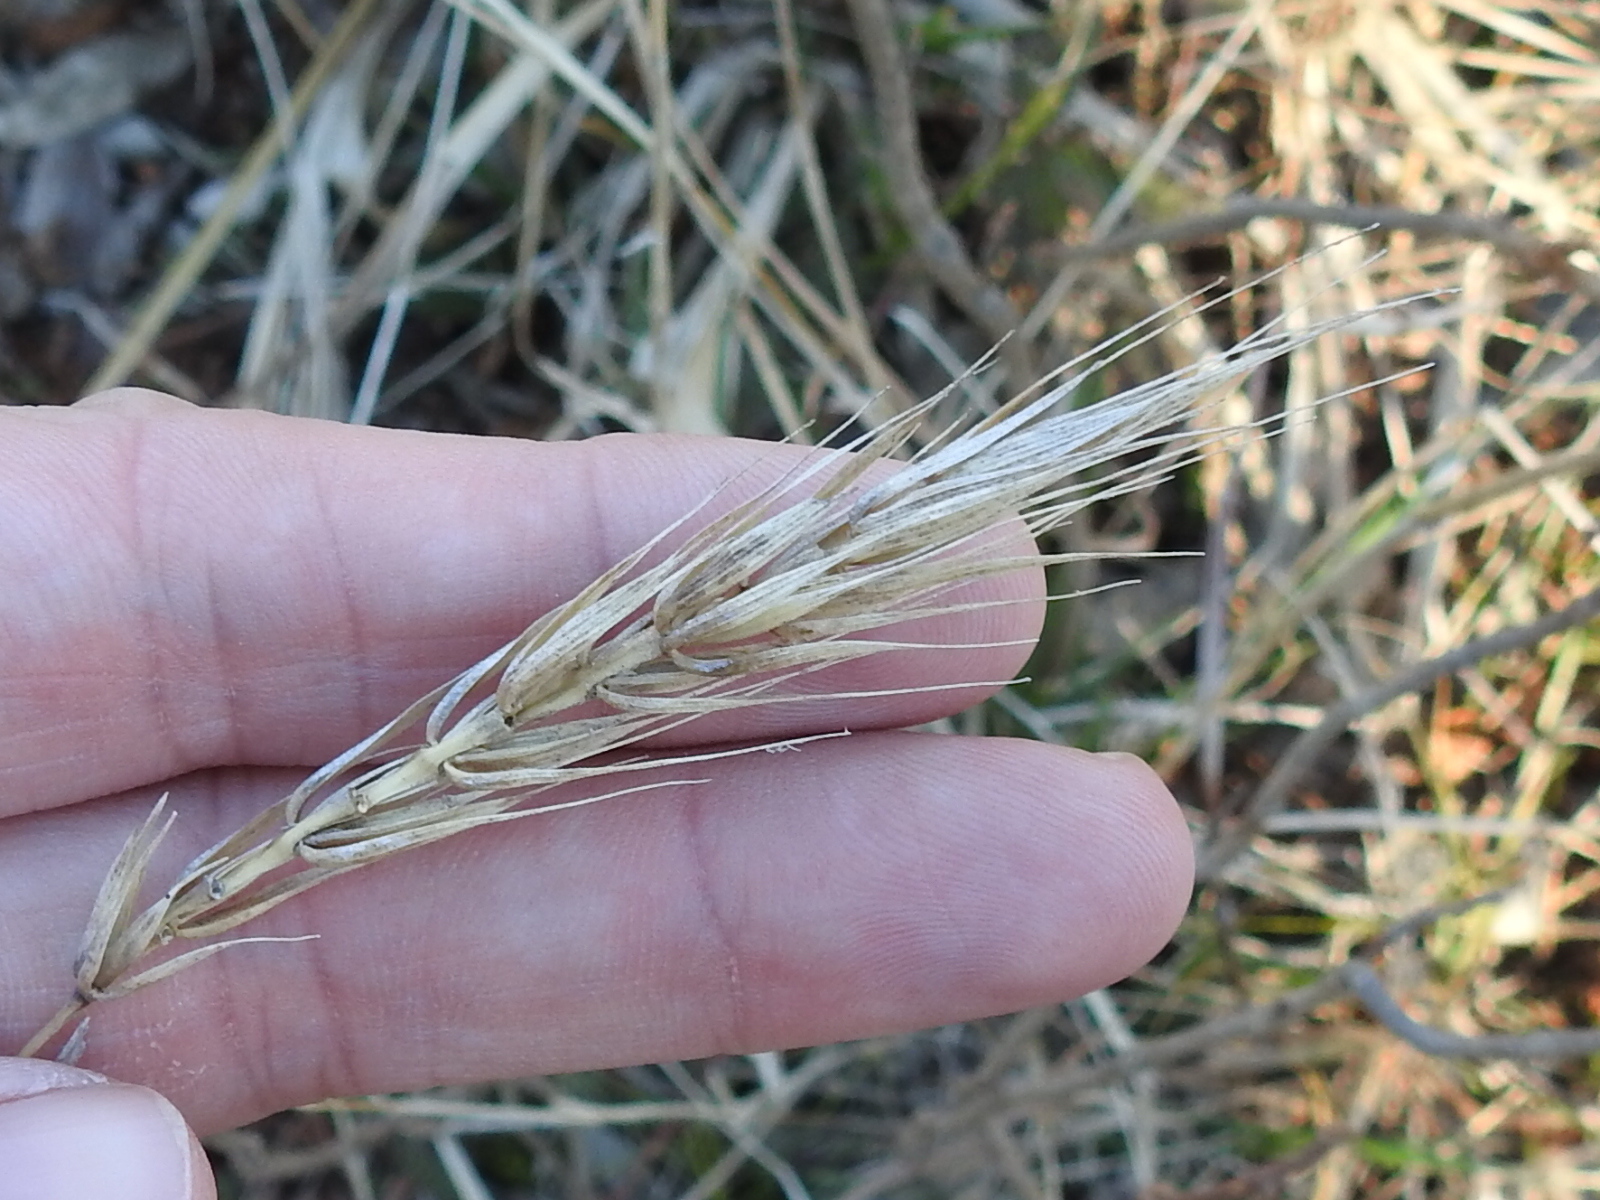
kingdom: Plantae
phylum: Tracheophyta
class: Liliopsida
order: Poales
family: Poaceae
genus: Elymus
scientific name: Elymus virginicus
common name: Common eastern wildrye
